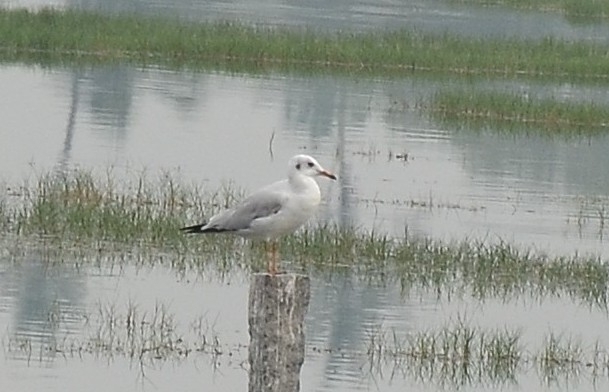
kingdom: Animalia
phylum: Chordata
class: Aves
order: Charadriiformes
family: Laridae
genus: Chroicocephalus
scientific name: Chroicocephalus brunnicephalus
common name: Brown-headed gull
